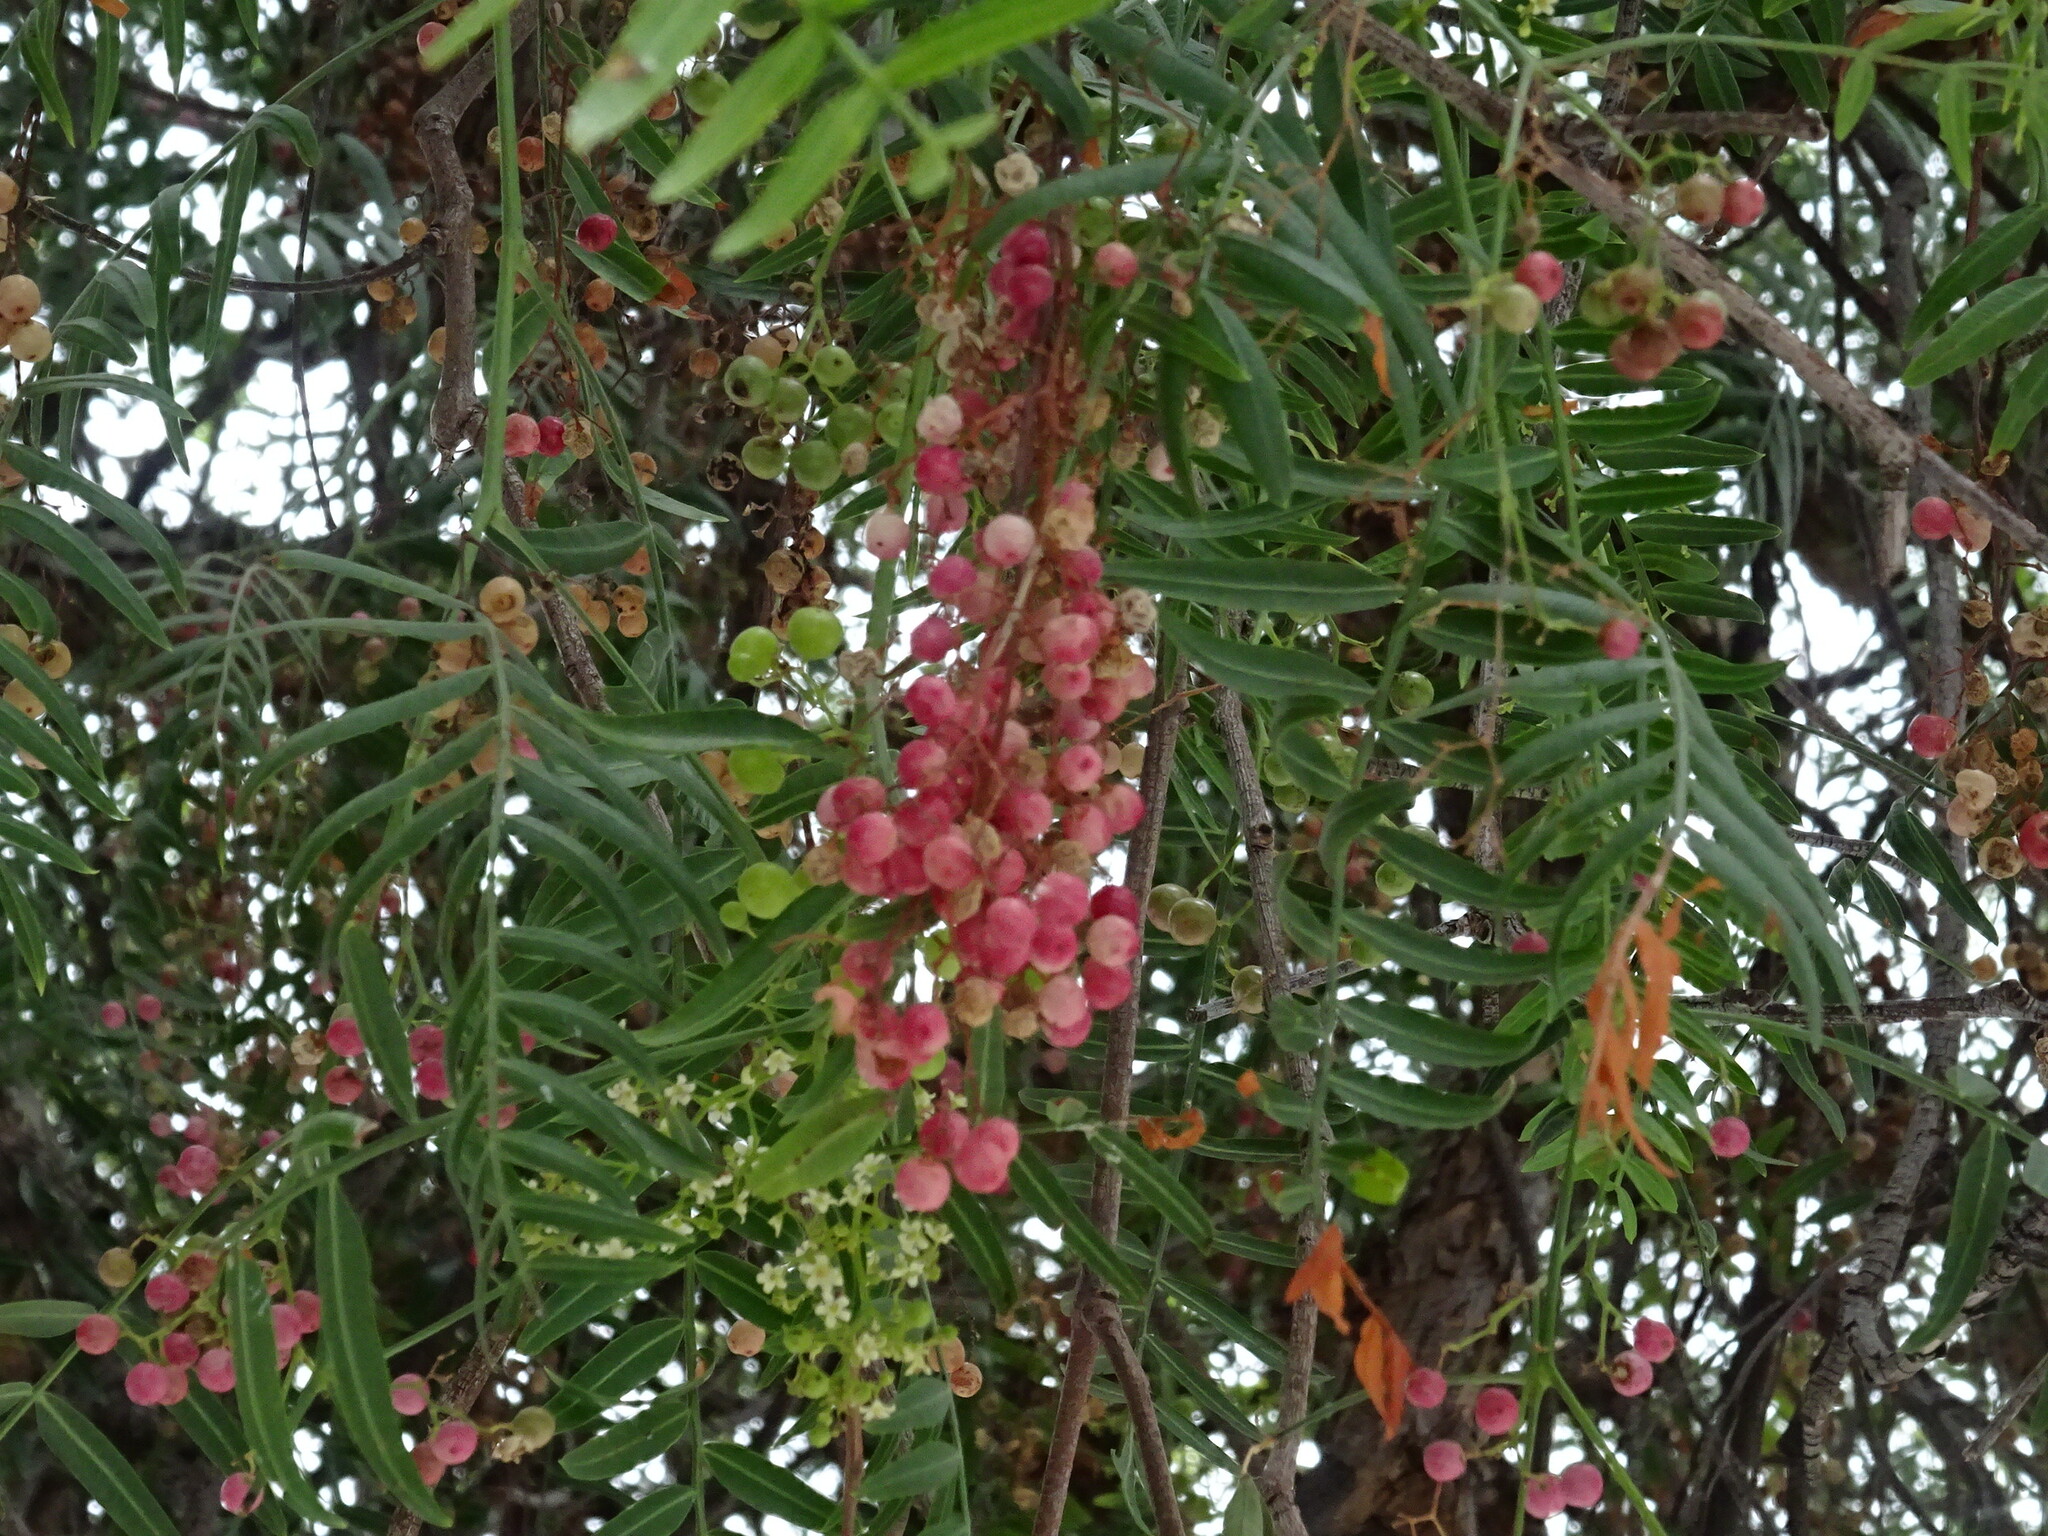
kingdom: Plantae
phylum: Tracheophyta
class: Magnoliopsida
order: Sapindales
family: Anacardiaceae
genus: Schinus
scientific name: Schinus molle
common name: Peruvian peppertree
